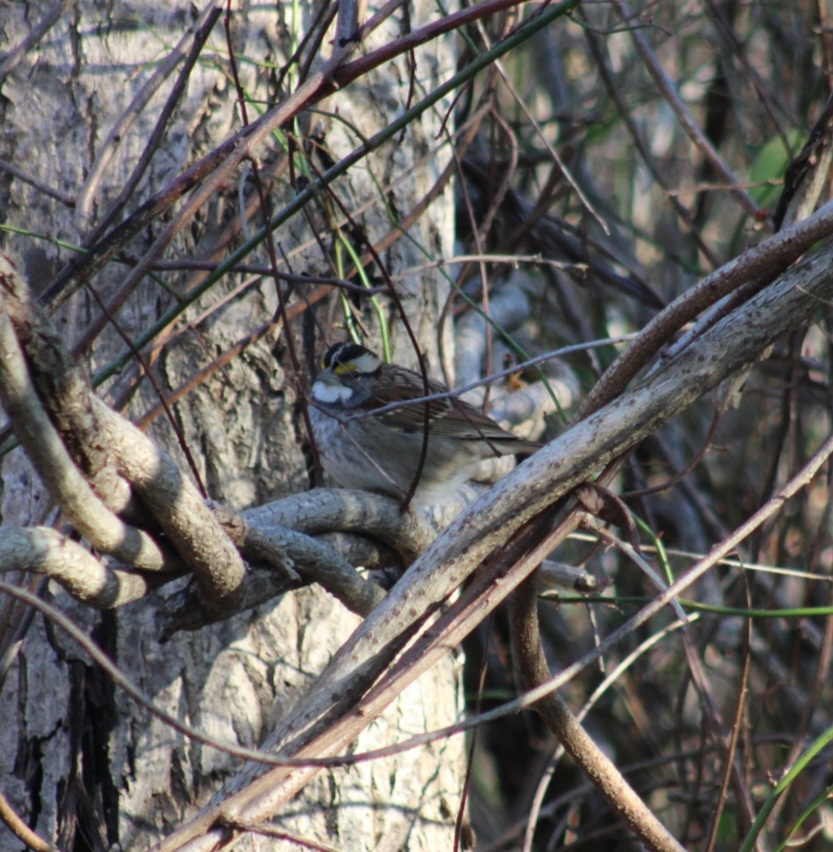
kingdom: Animalia
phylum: Chordata
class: Aves
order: Passeriformes
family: Passerellidae
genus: Zonotrichia
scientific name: Zonotrichia albicollis
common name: White-throated sparrow
